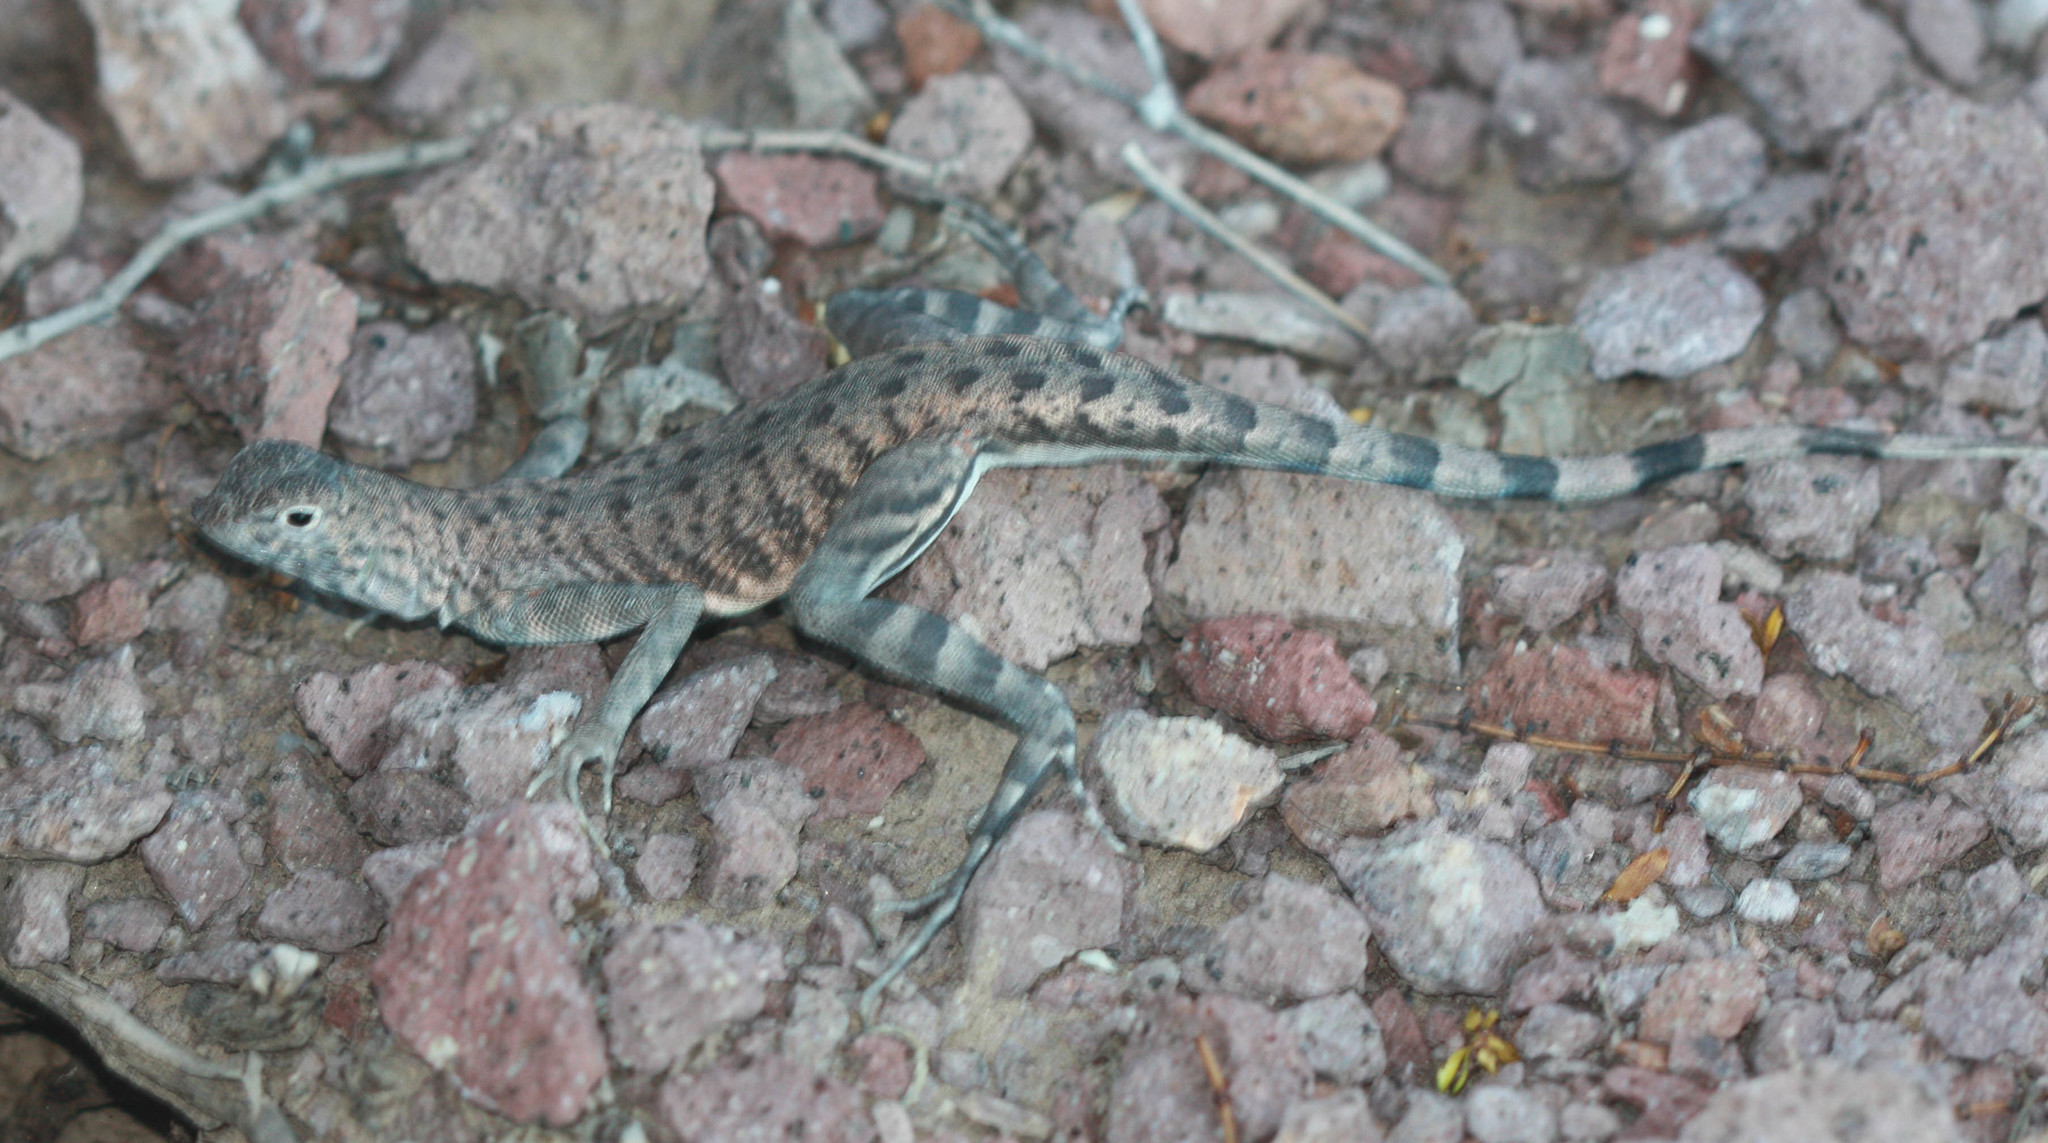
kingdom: Animalia
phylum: Chordata
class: Squamata
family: Phrynosomatidae
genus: Callisaurus
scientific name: Callisaurus draconoides
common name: Zebra-tailed lizard
